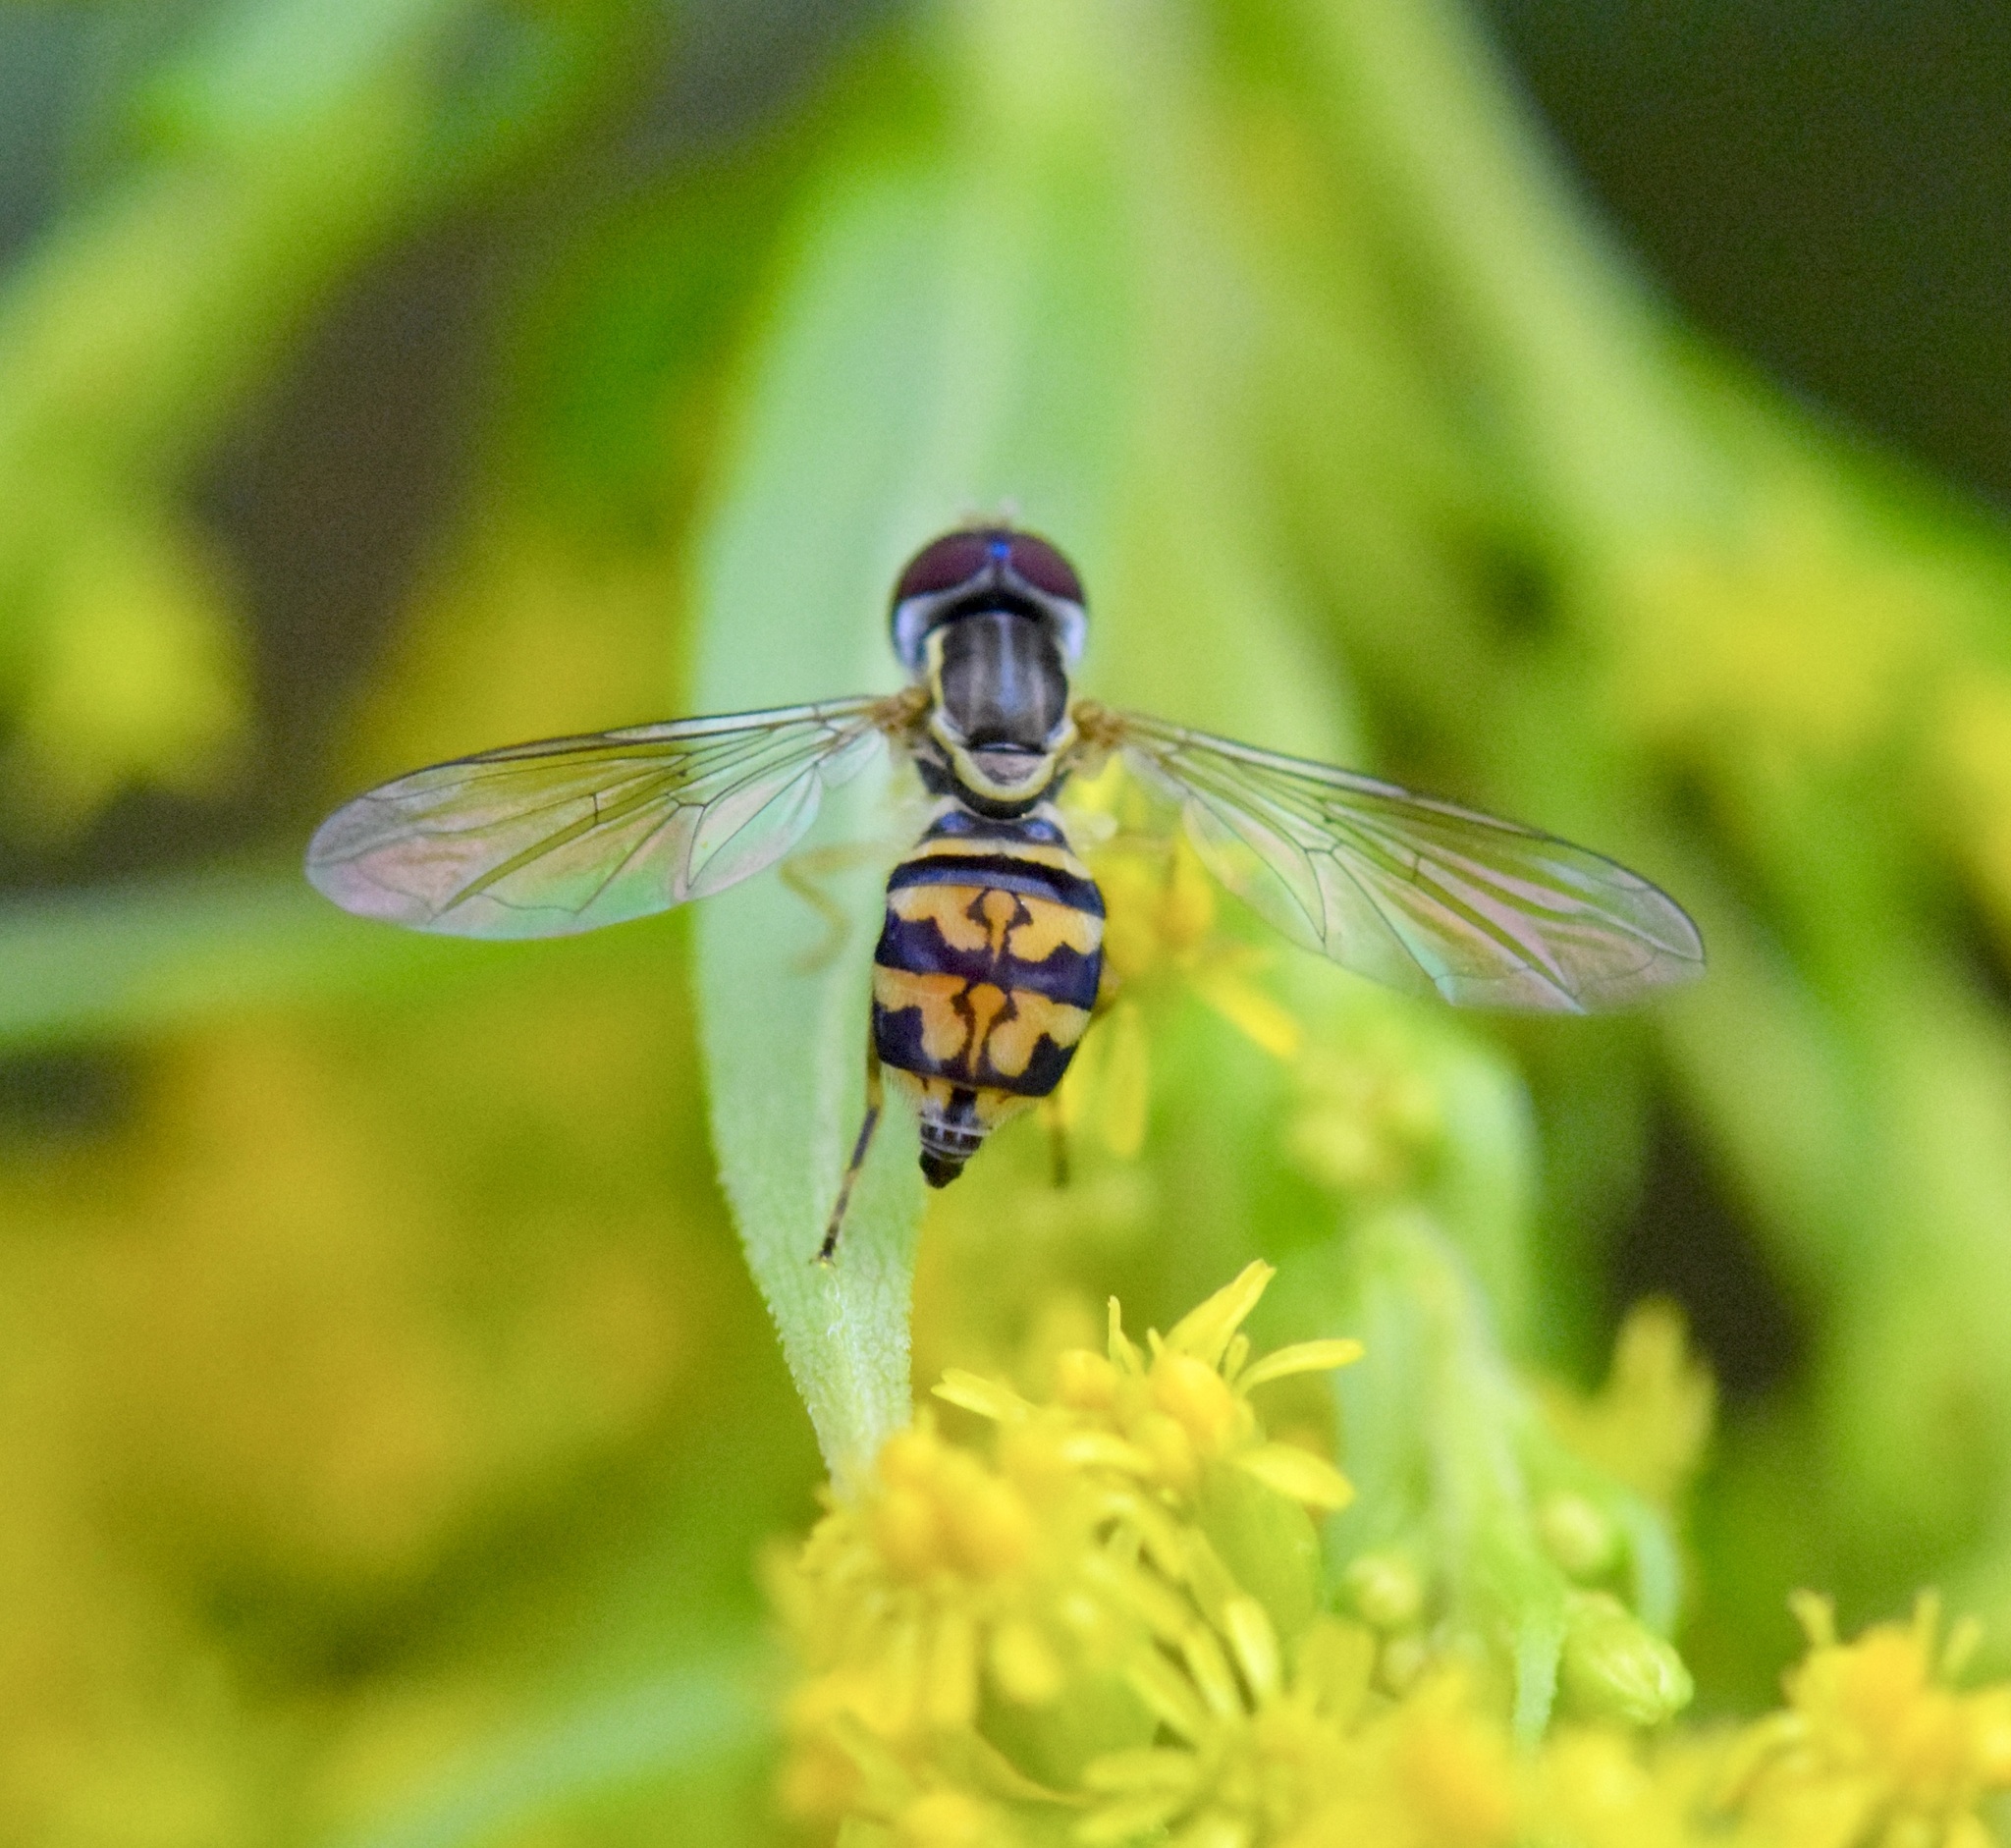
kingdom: Animalia
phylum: Arthropoda
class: Insecta
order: Diptera
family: Syrphidae
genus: Toxomerus
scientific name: Toxomerus geminatus
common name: Eastern calligrapher
